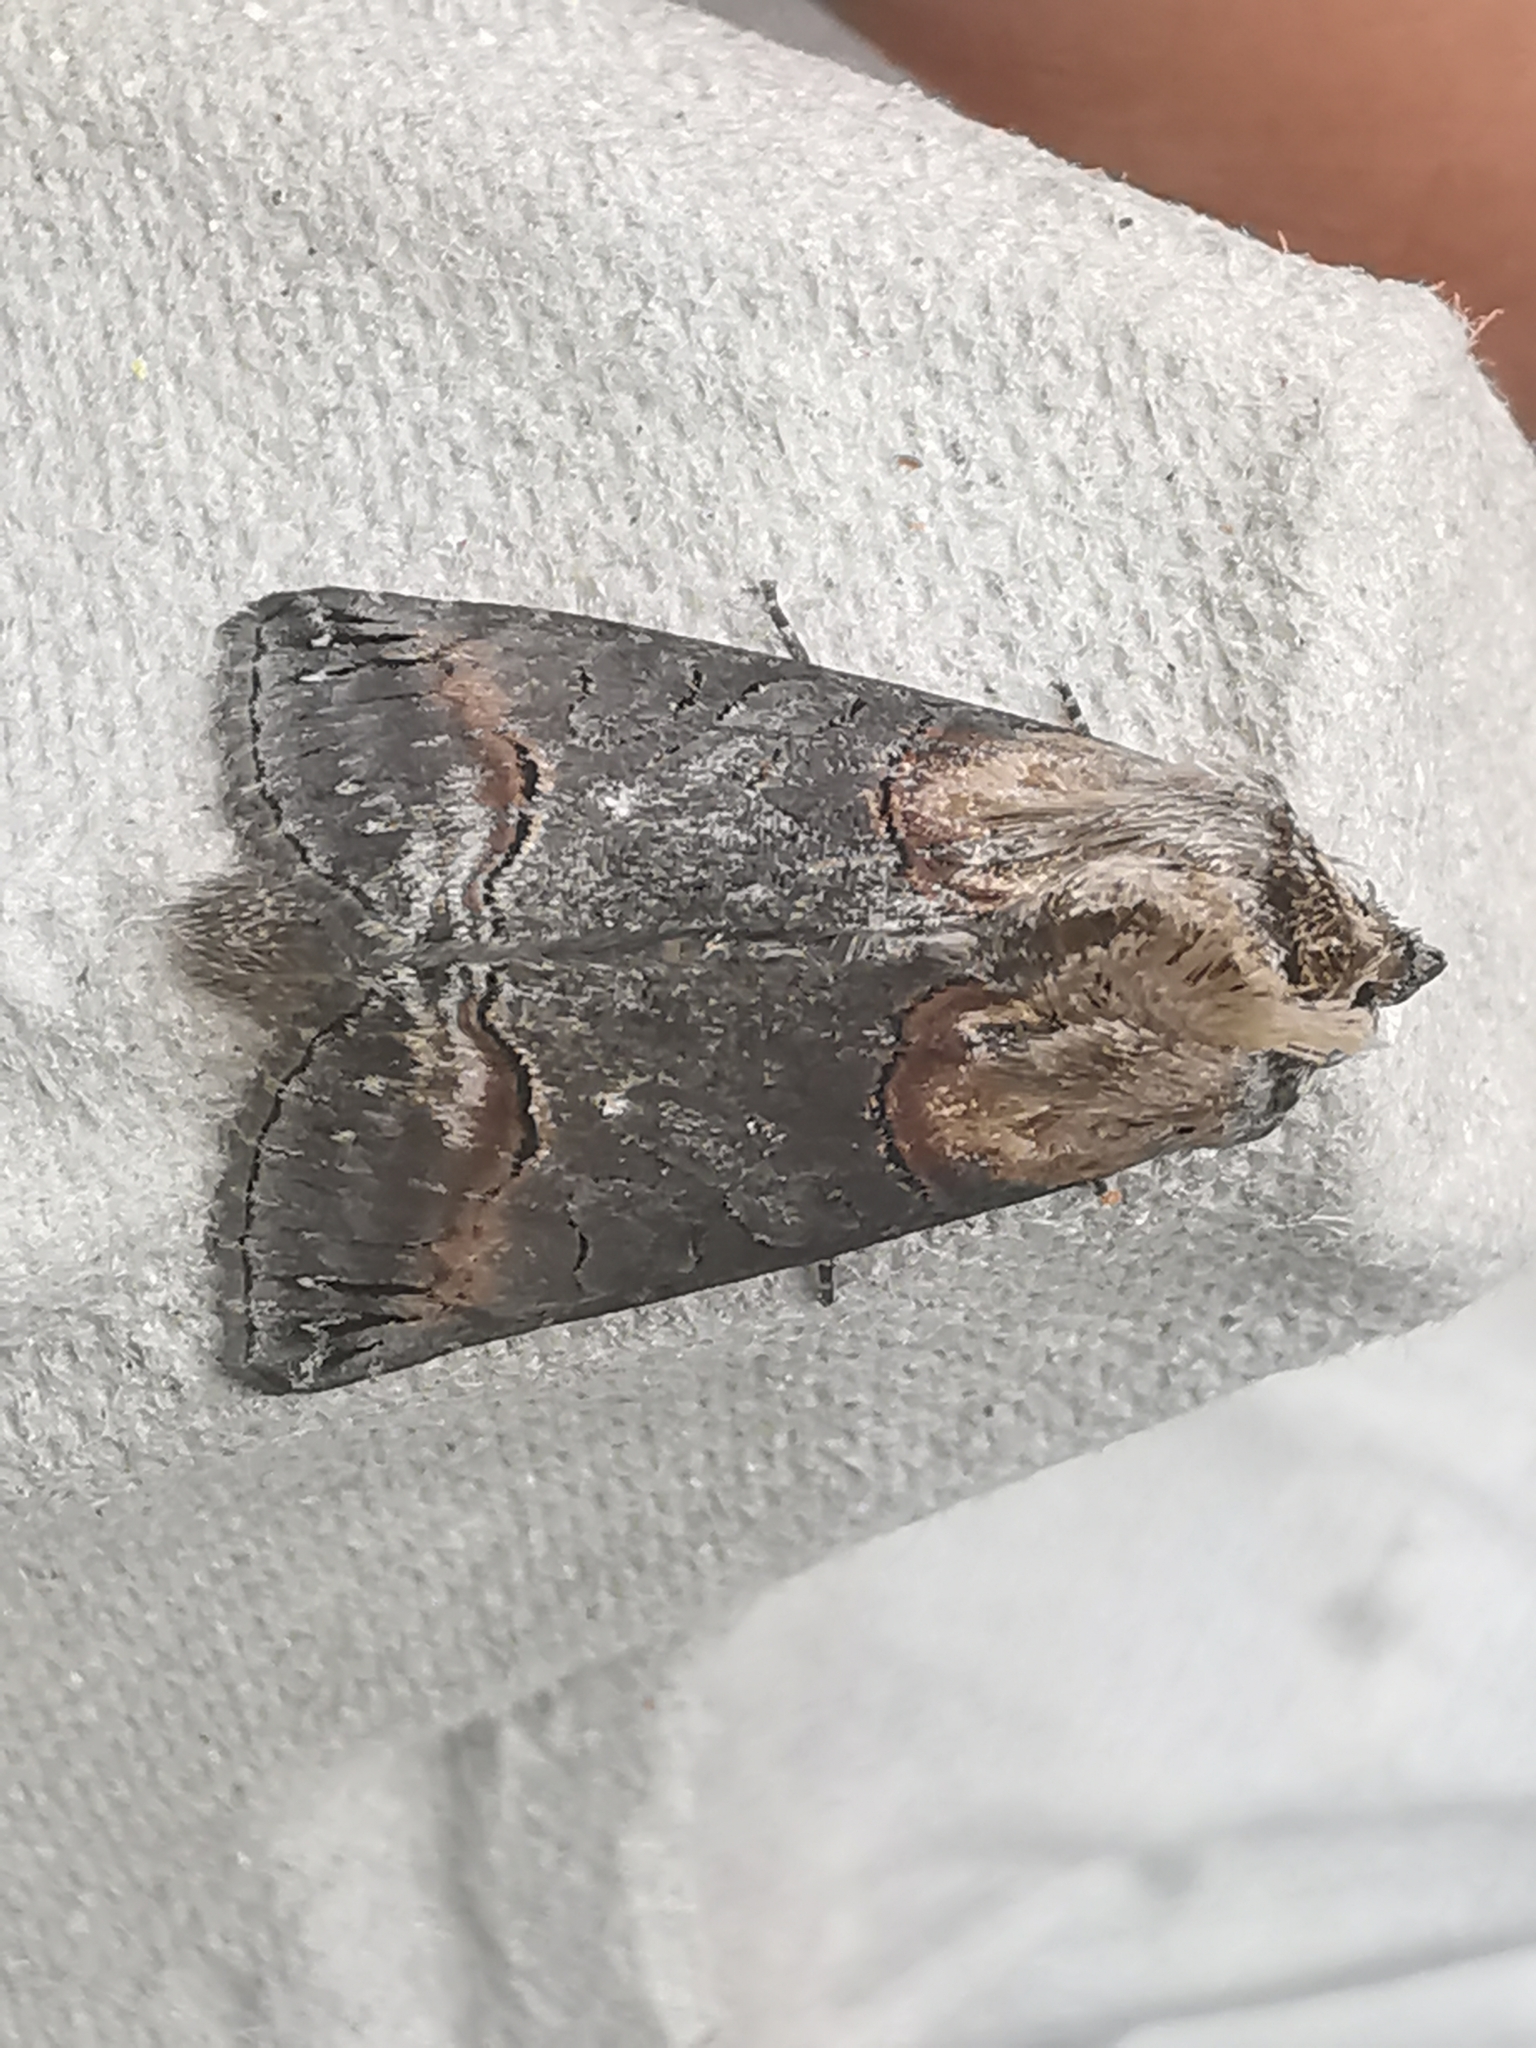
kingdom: Animalia
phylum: Arthropoda
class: Insecta
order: Lepidoptera
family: Noctuidae
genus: Abrostola
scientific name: Abrostola tripartita
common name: Spectacle
